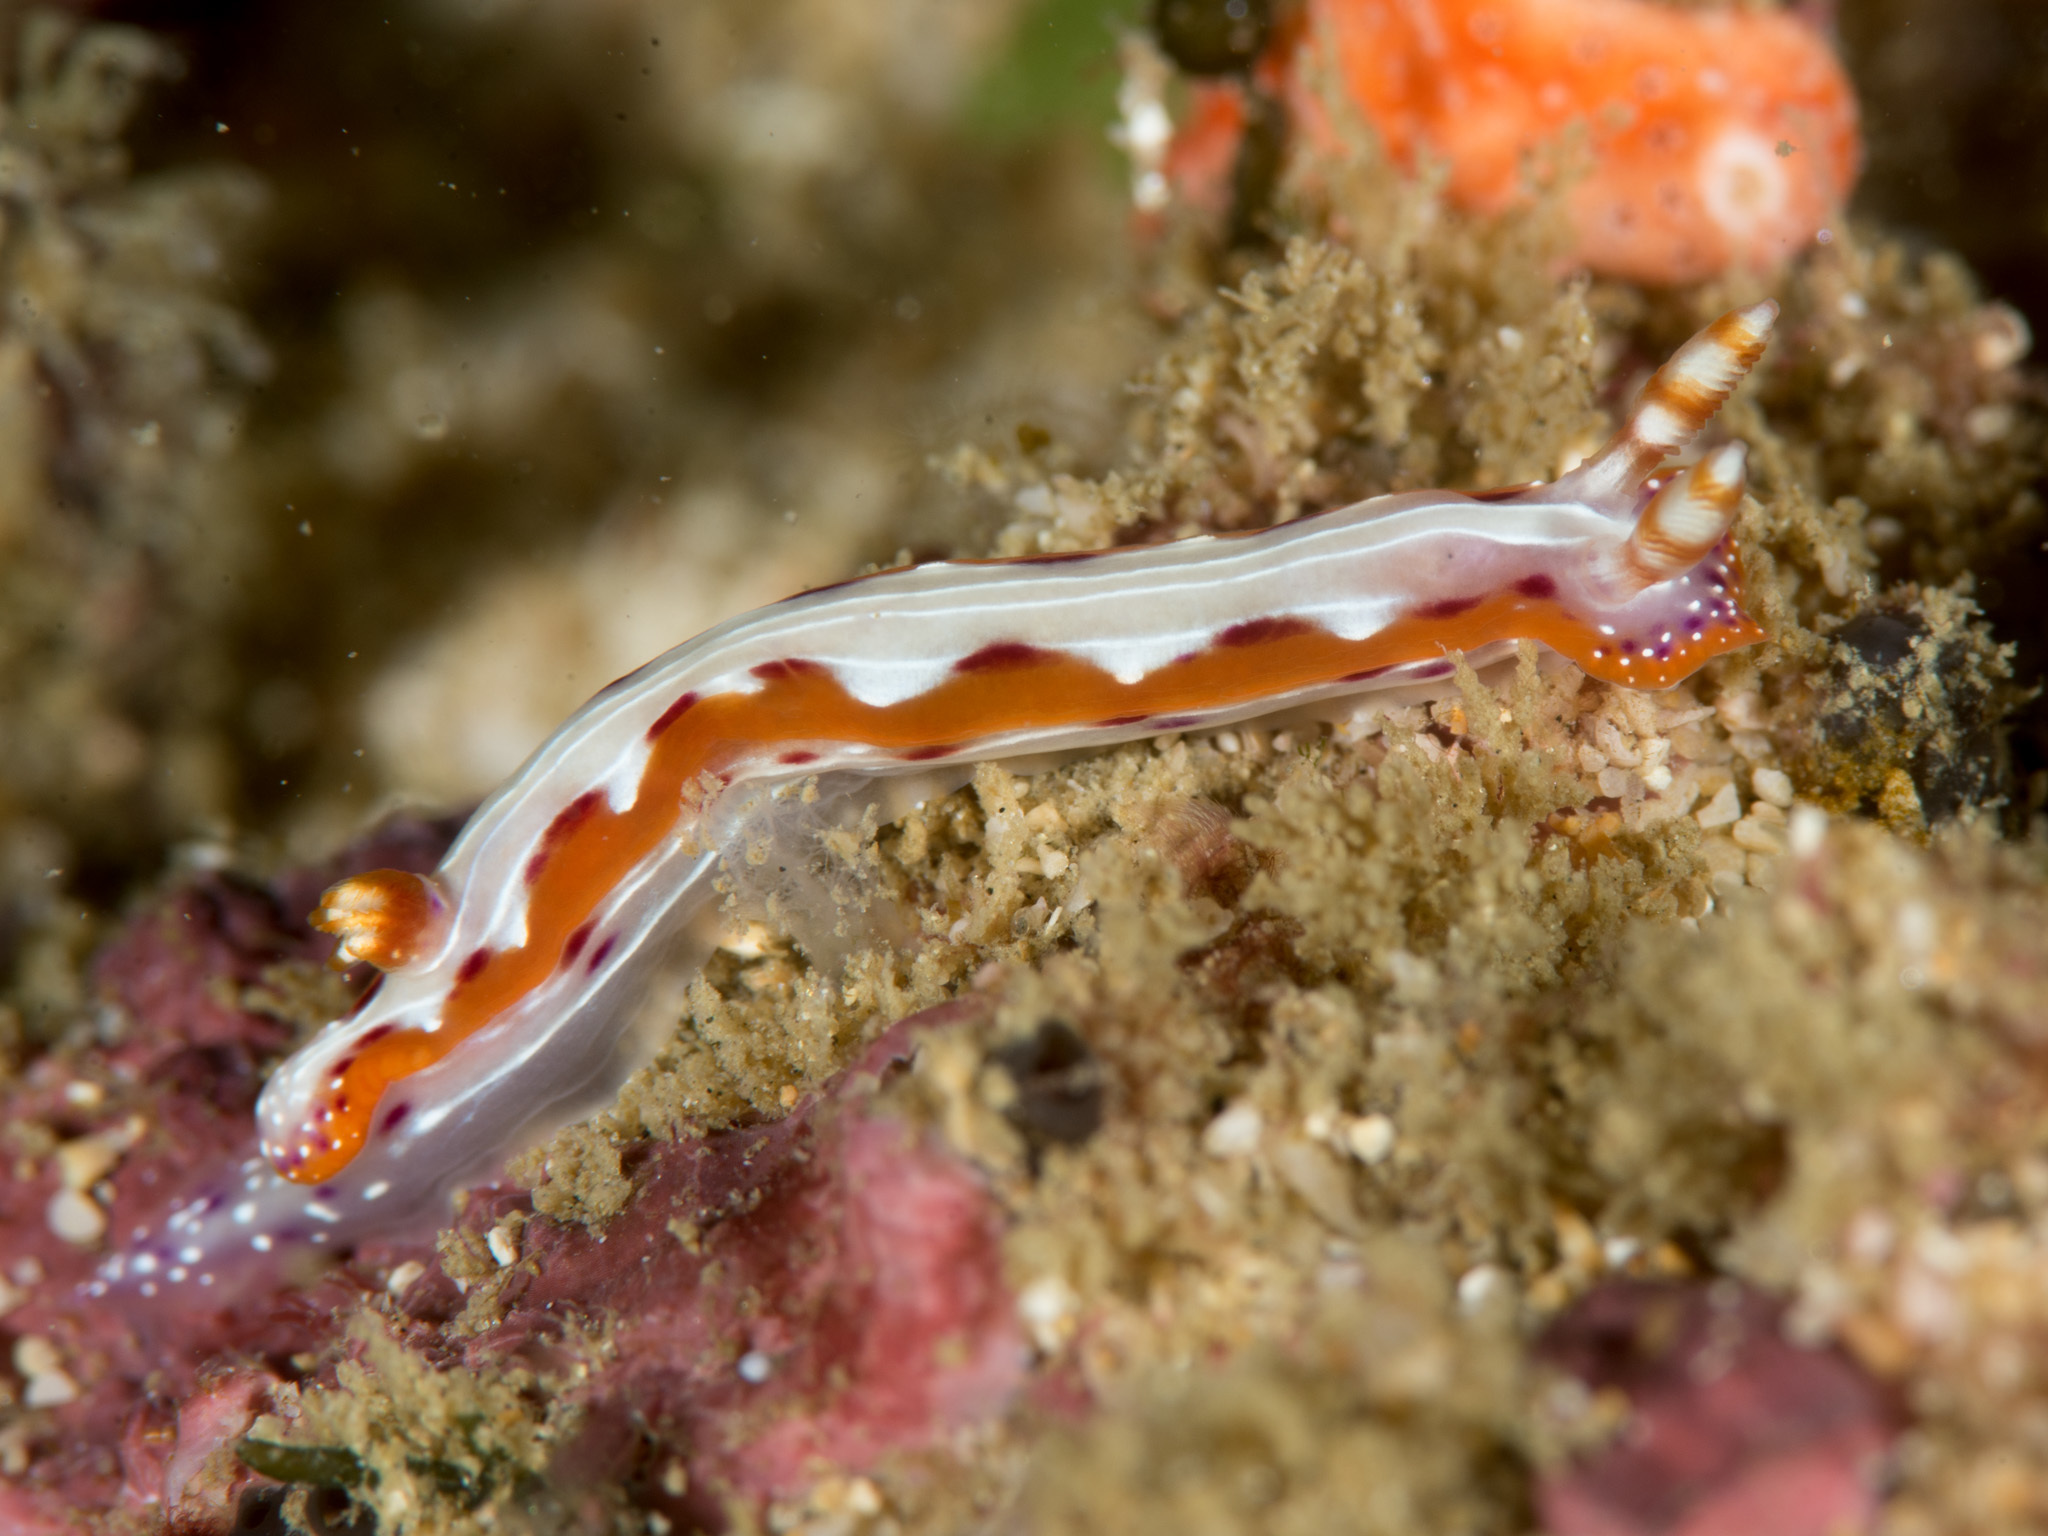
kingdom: Animalia
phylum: Mollusca
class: Gastropoda
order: Nudibranchia
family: Chromodorididae
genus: Hypselodoris
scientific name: Hypselodoris maculosa
